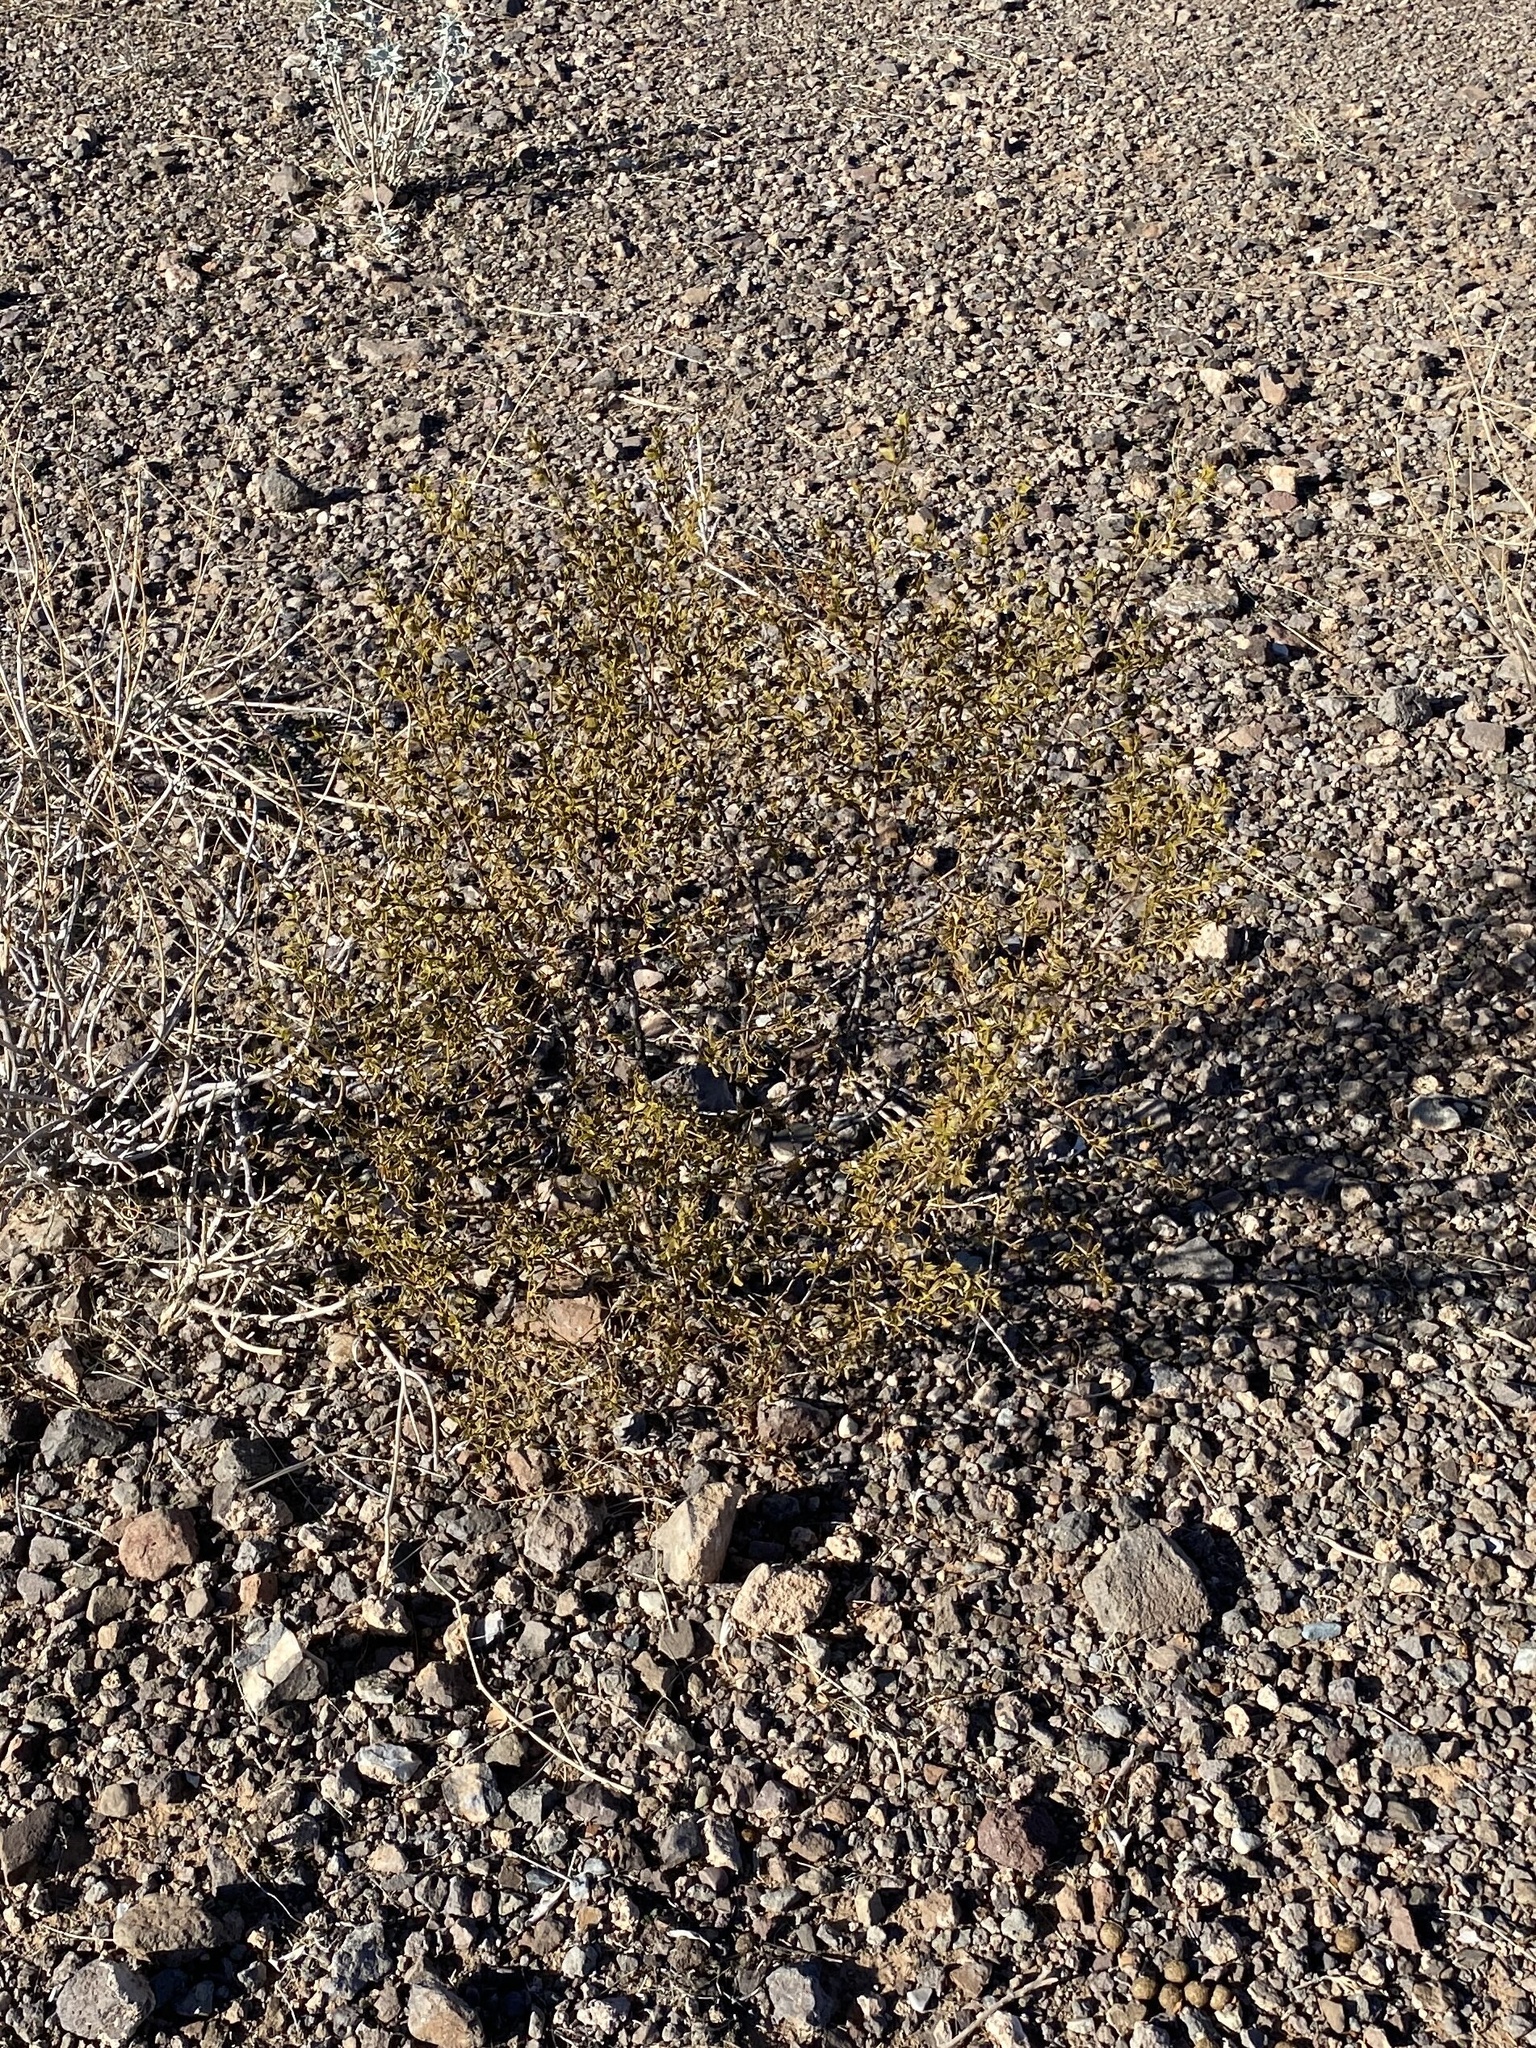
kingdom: Plantae
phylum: Tracheophyta
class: Magnoliopsida
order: Zygophyllales
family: Zygophyllaceae
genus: Larrea
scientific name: Larrea tridentata
